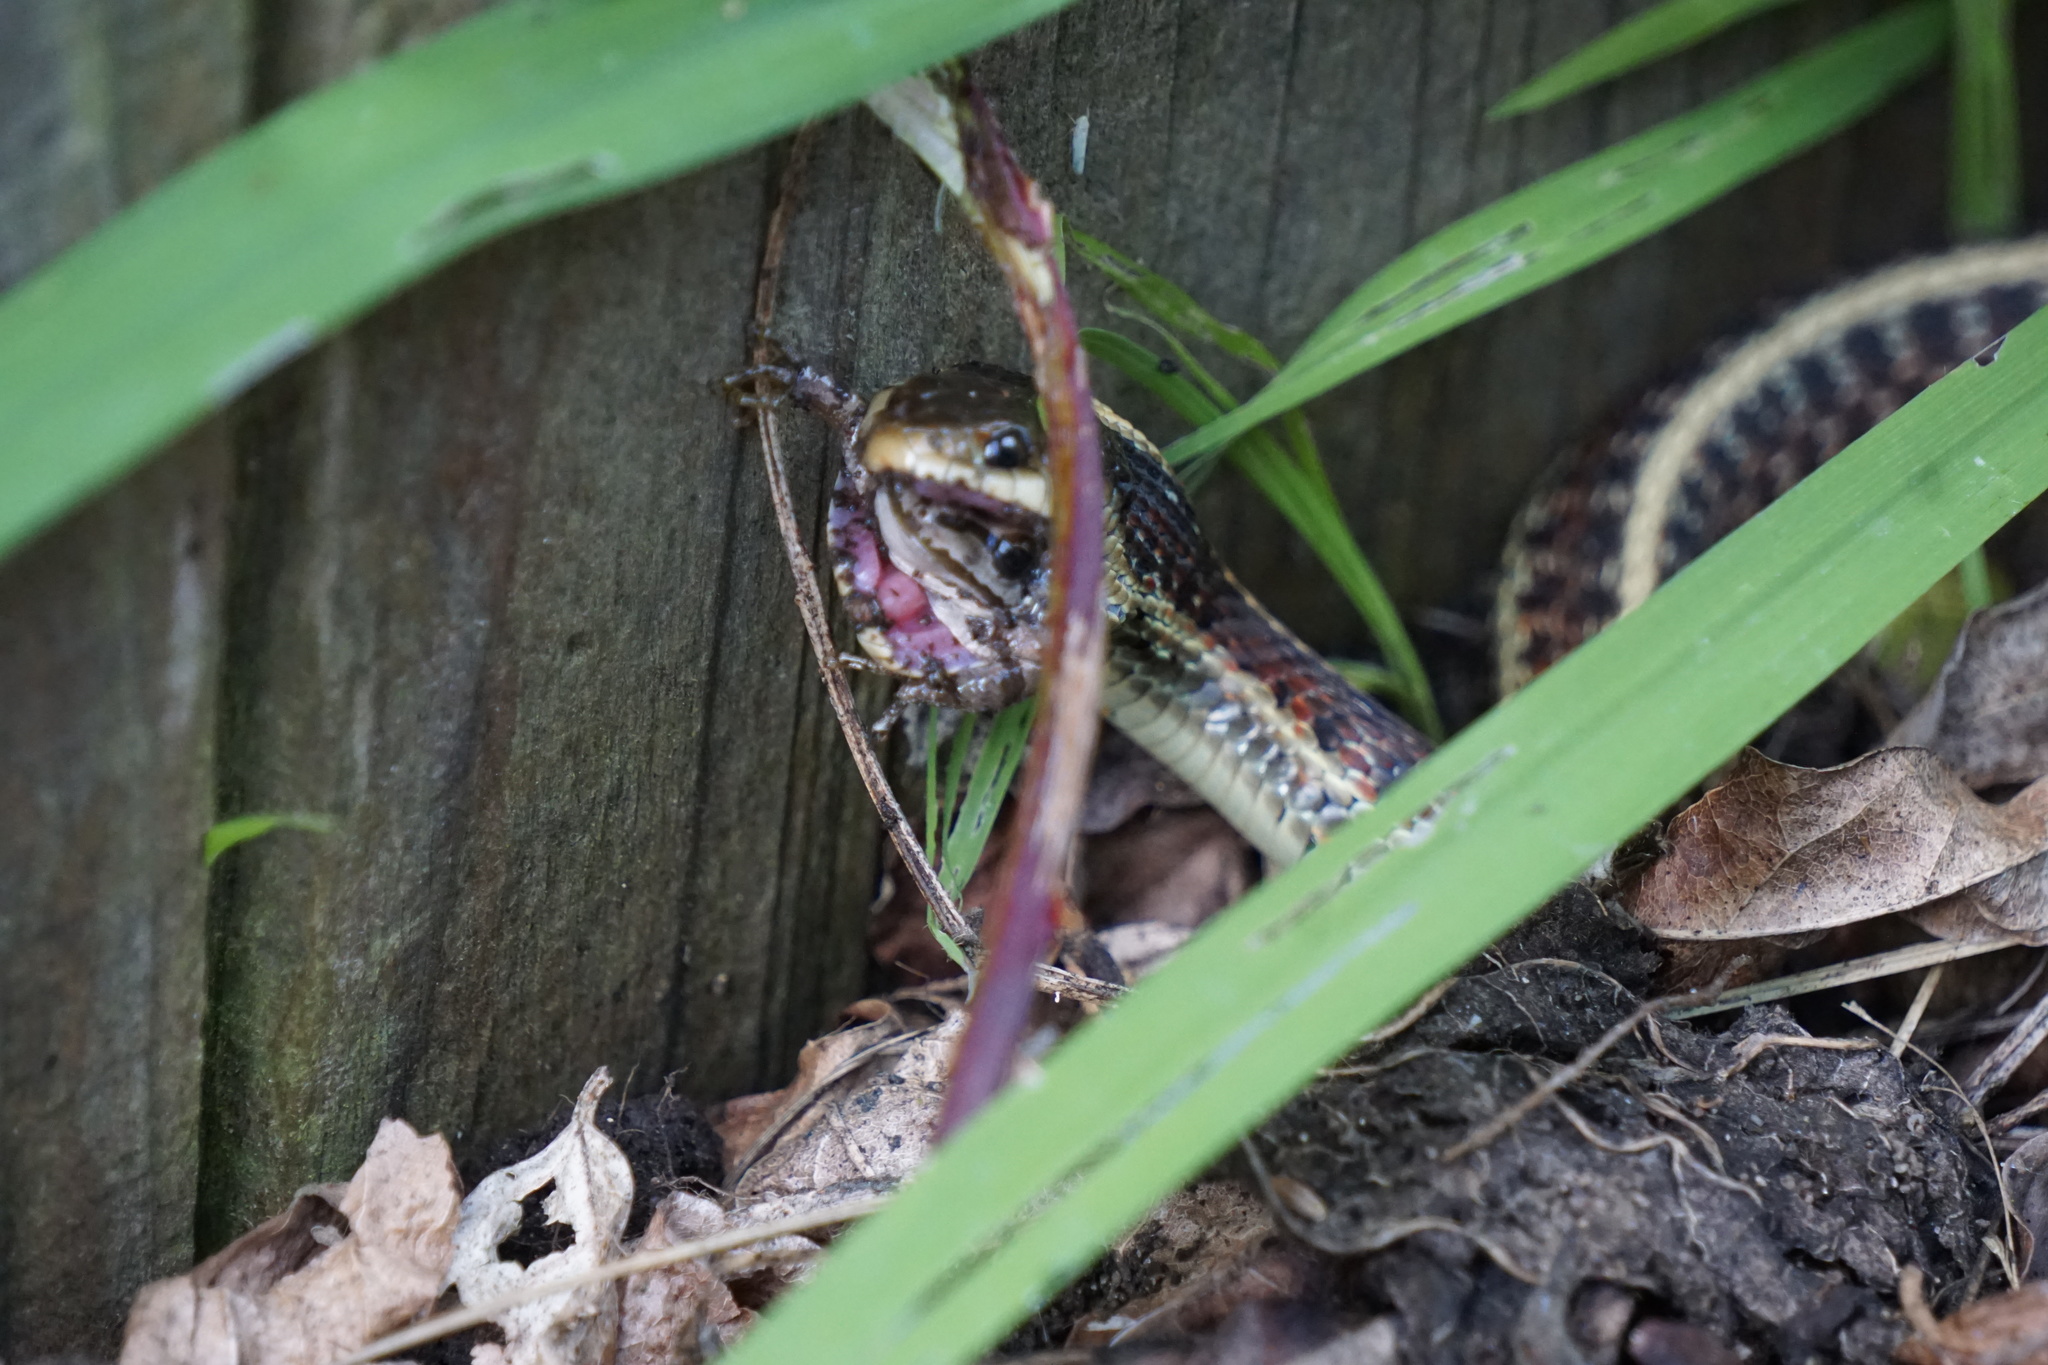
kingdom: Animalia
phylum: Chordata
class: Squamata
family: Colubridae
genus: Thamnophis
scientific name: Thamnophis elegans
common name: Western terrestrial garter snake
